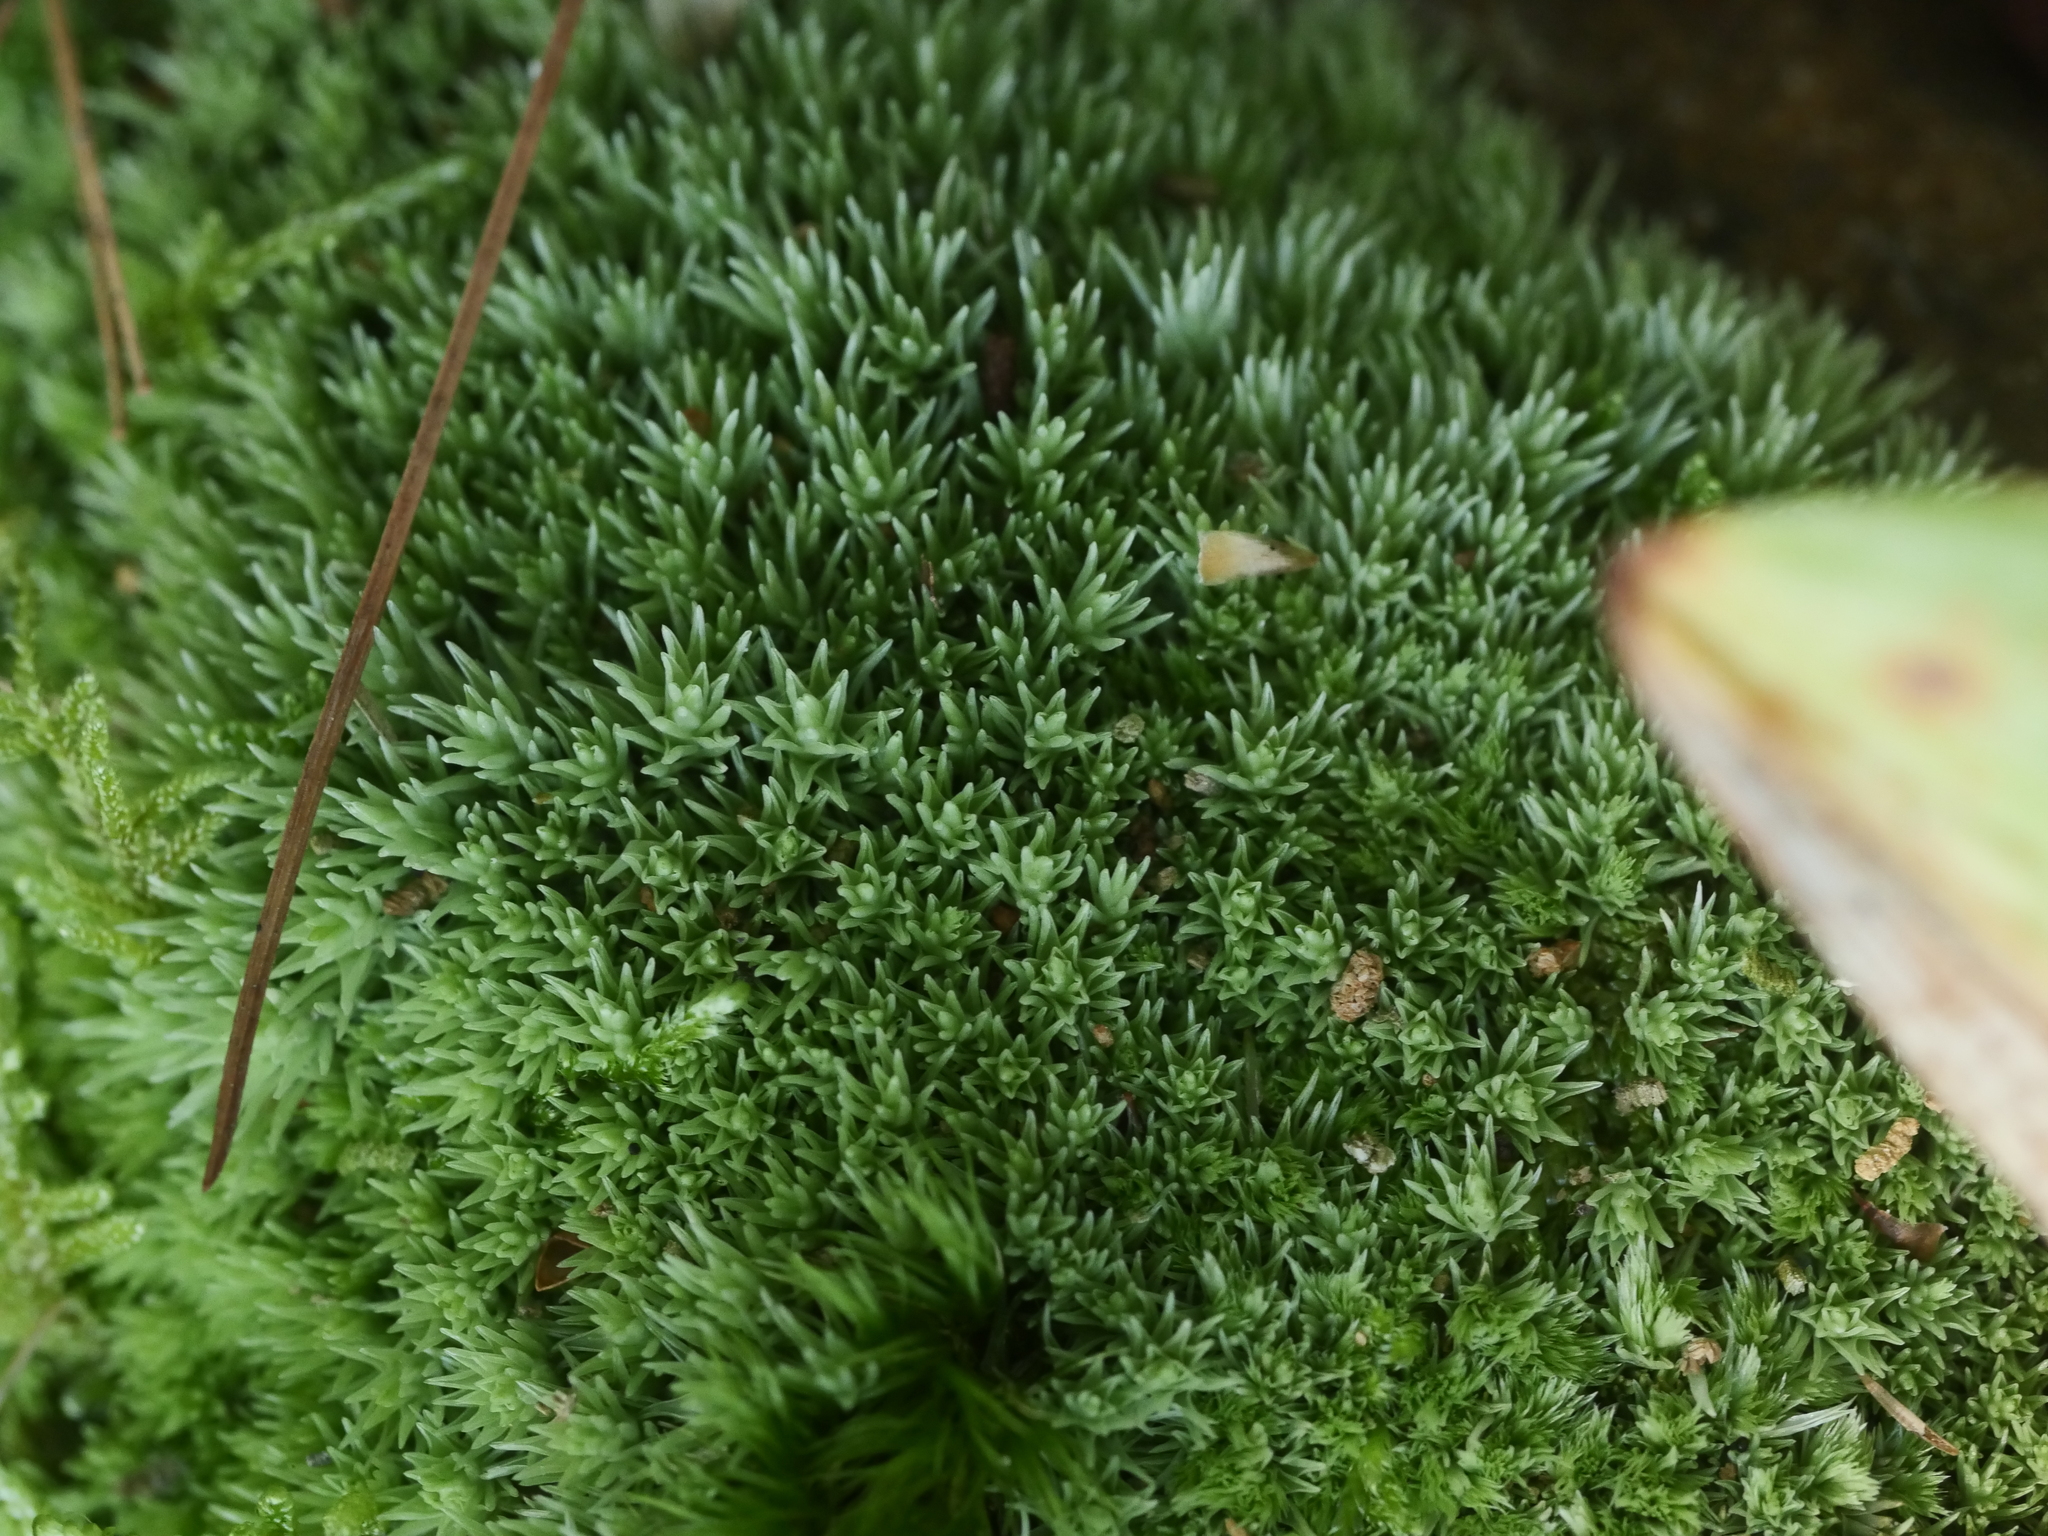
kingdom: Plantae
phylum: Bryophyta
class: Bryopsida
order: Dicranales
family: Leucobryaceae
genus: Leucobryum
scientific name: Leucobryum glaucum
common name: Large white-moss
